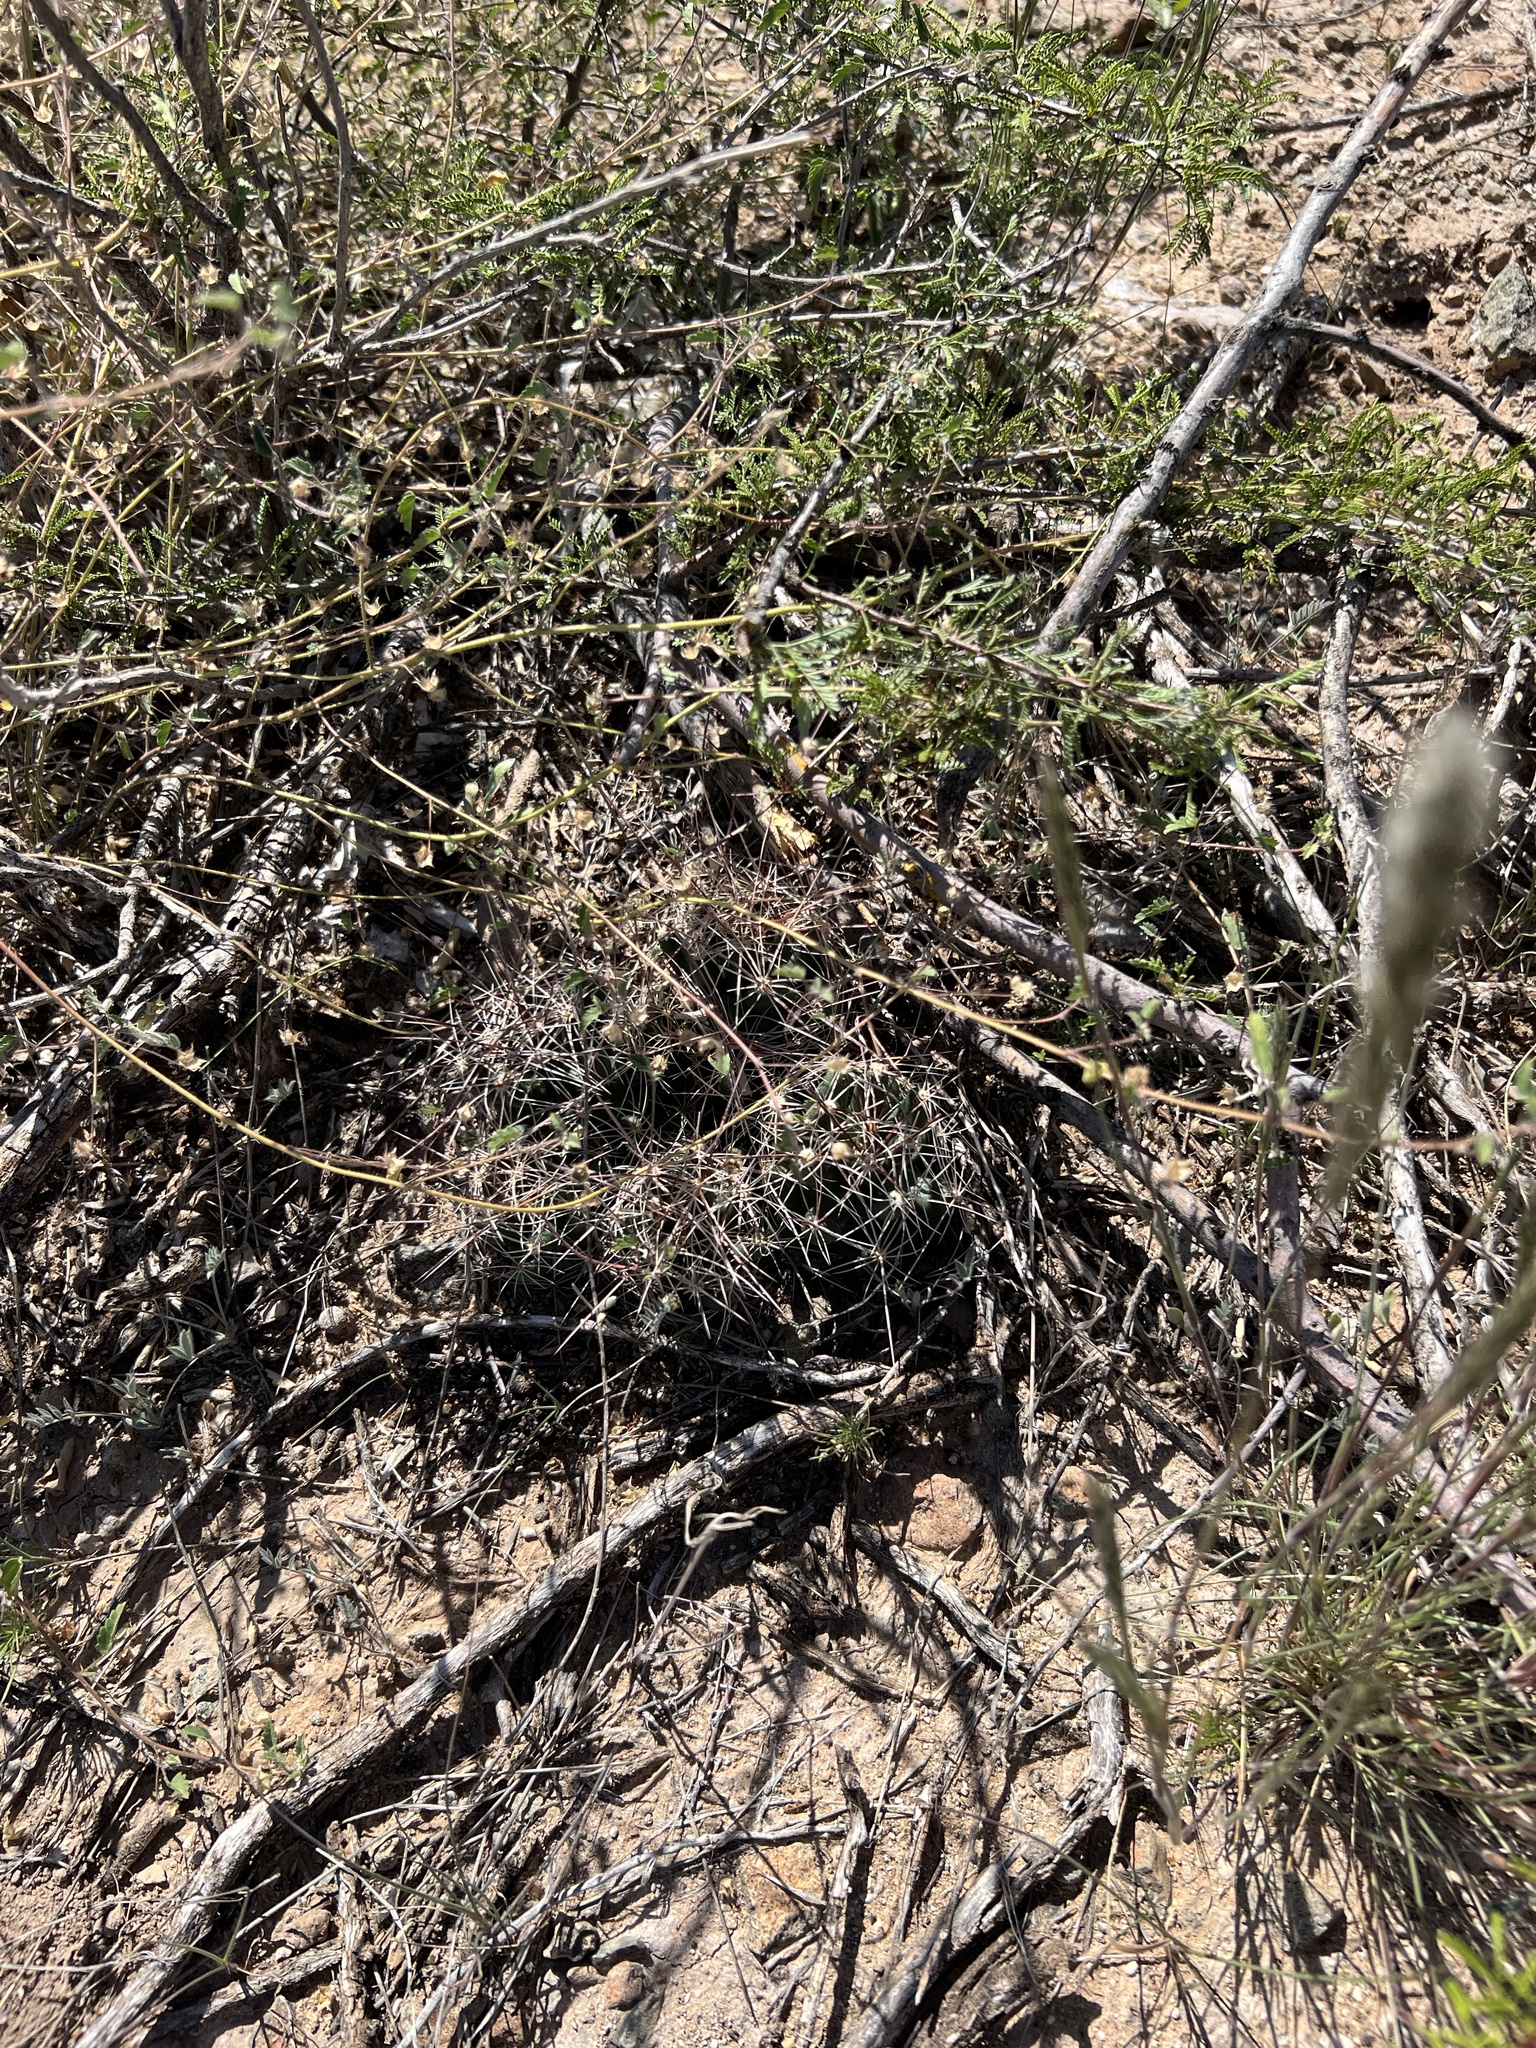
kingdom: Plantae
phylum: Tracheophyta
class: Magnoliopsida
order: Caryophyllales
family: Cactaceae
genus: Coryphantha
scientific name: Coryphantha macromeris
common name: Nipple beehive cactus
